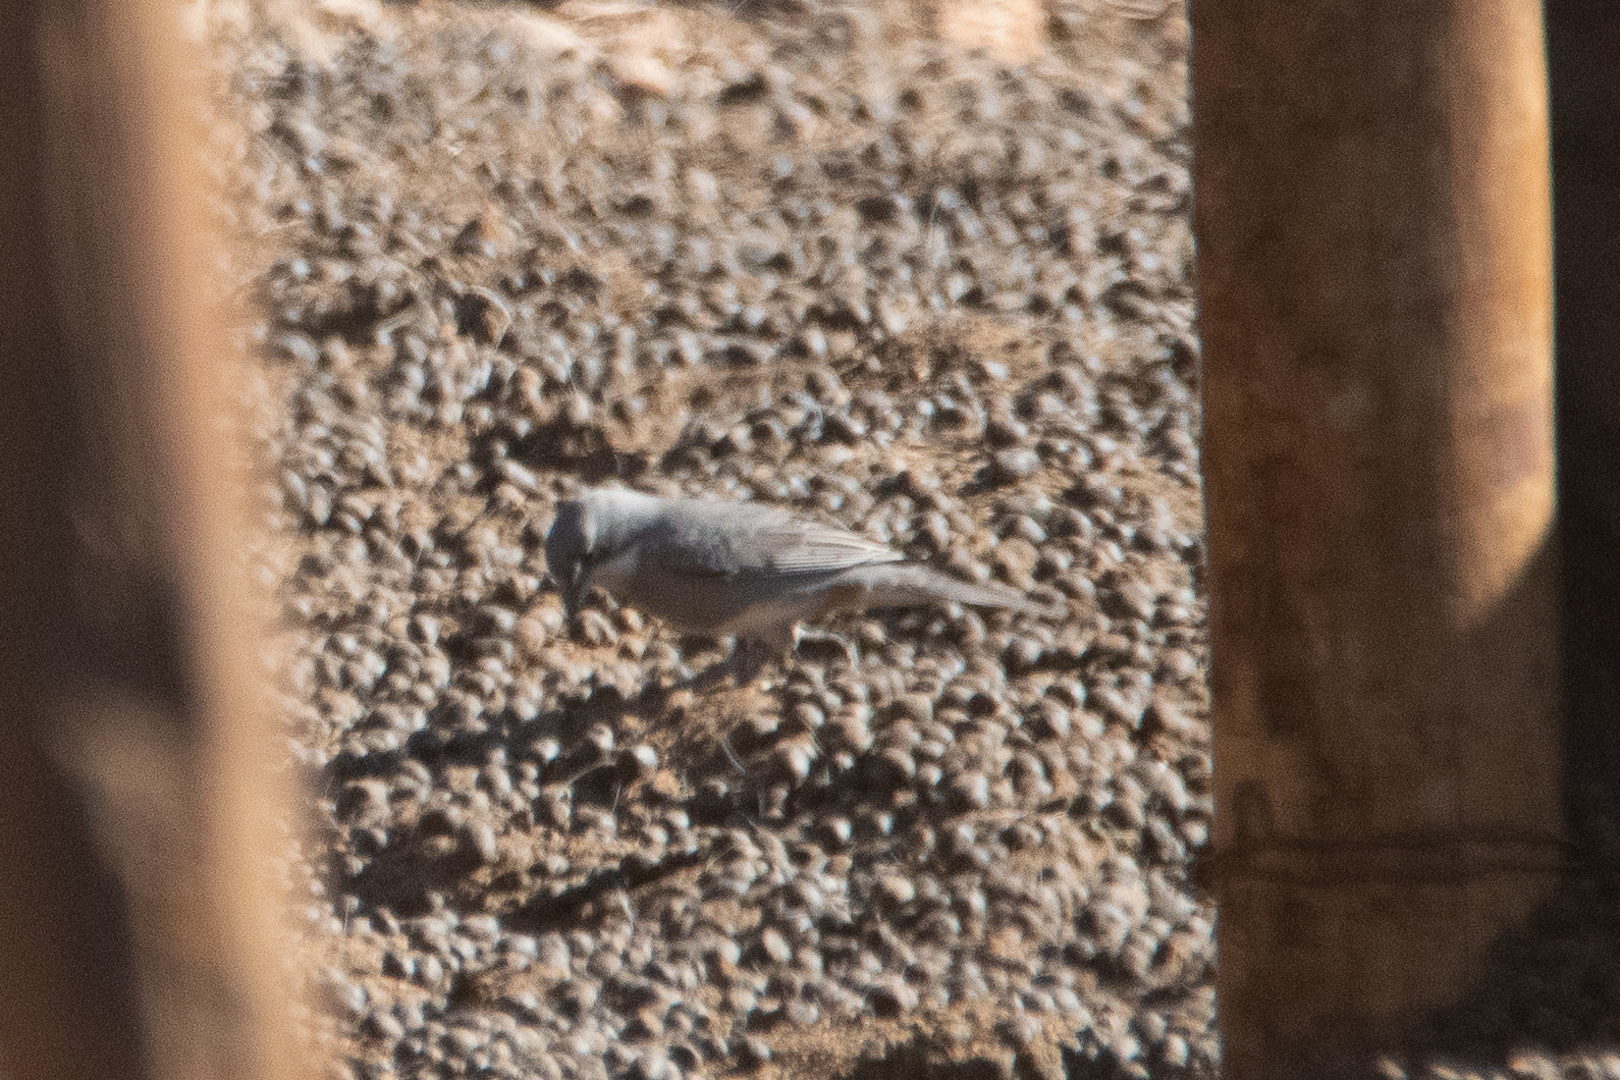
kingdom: Animalia
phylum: Chordata
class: Aves
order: Passeriformes
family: Thraupidae
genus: Diuca
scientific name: Diuca diuca
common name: Common diuca finch
